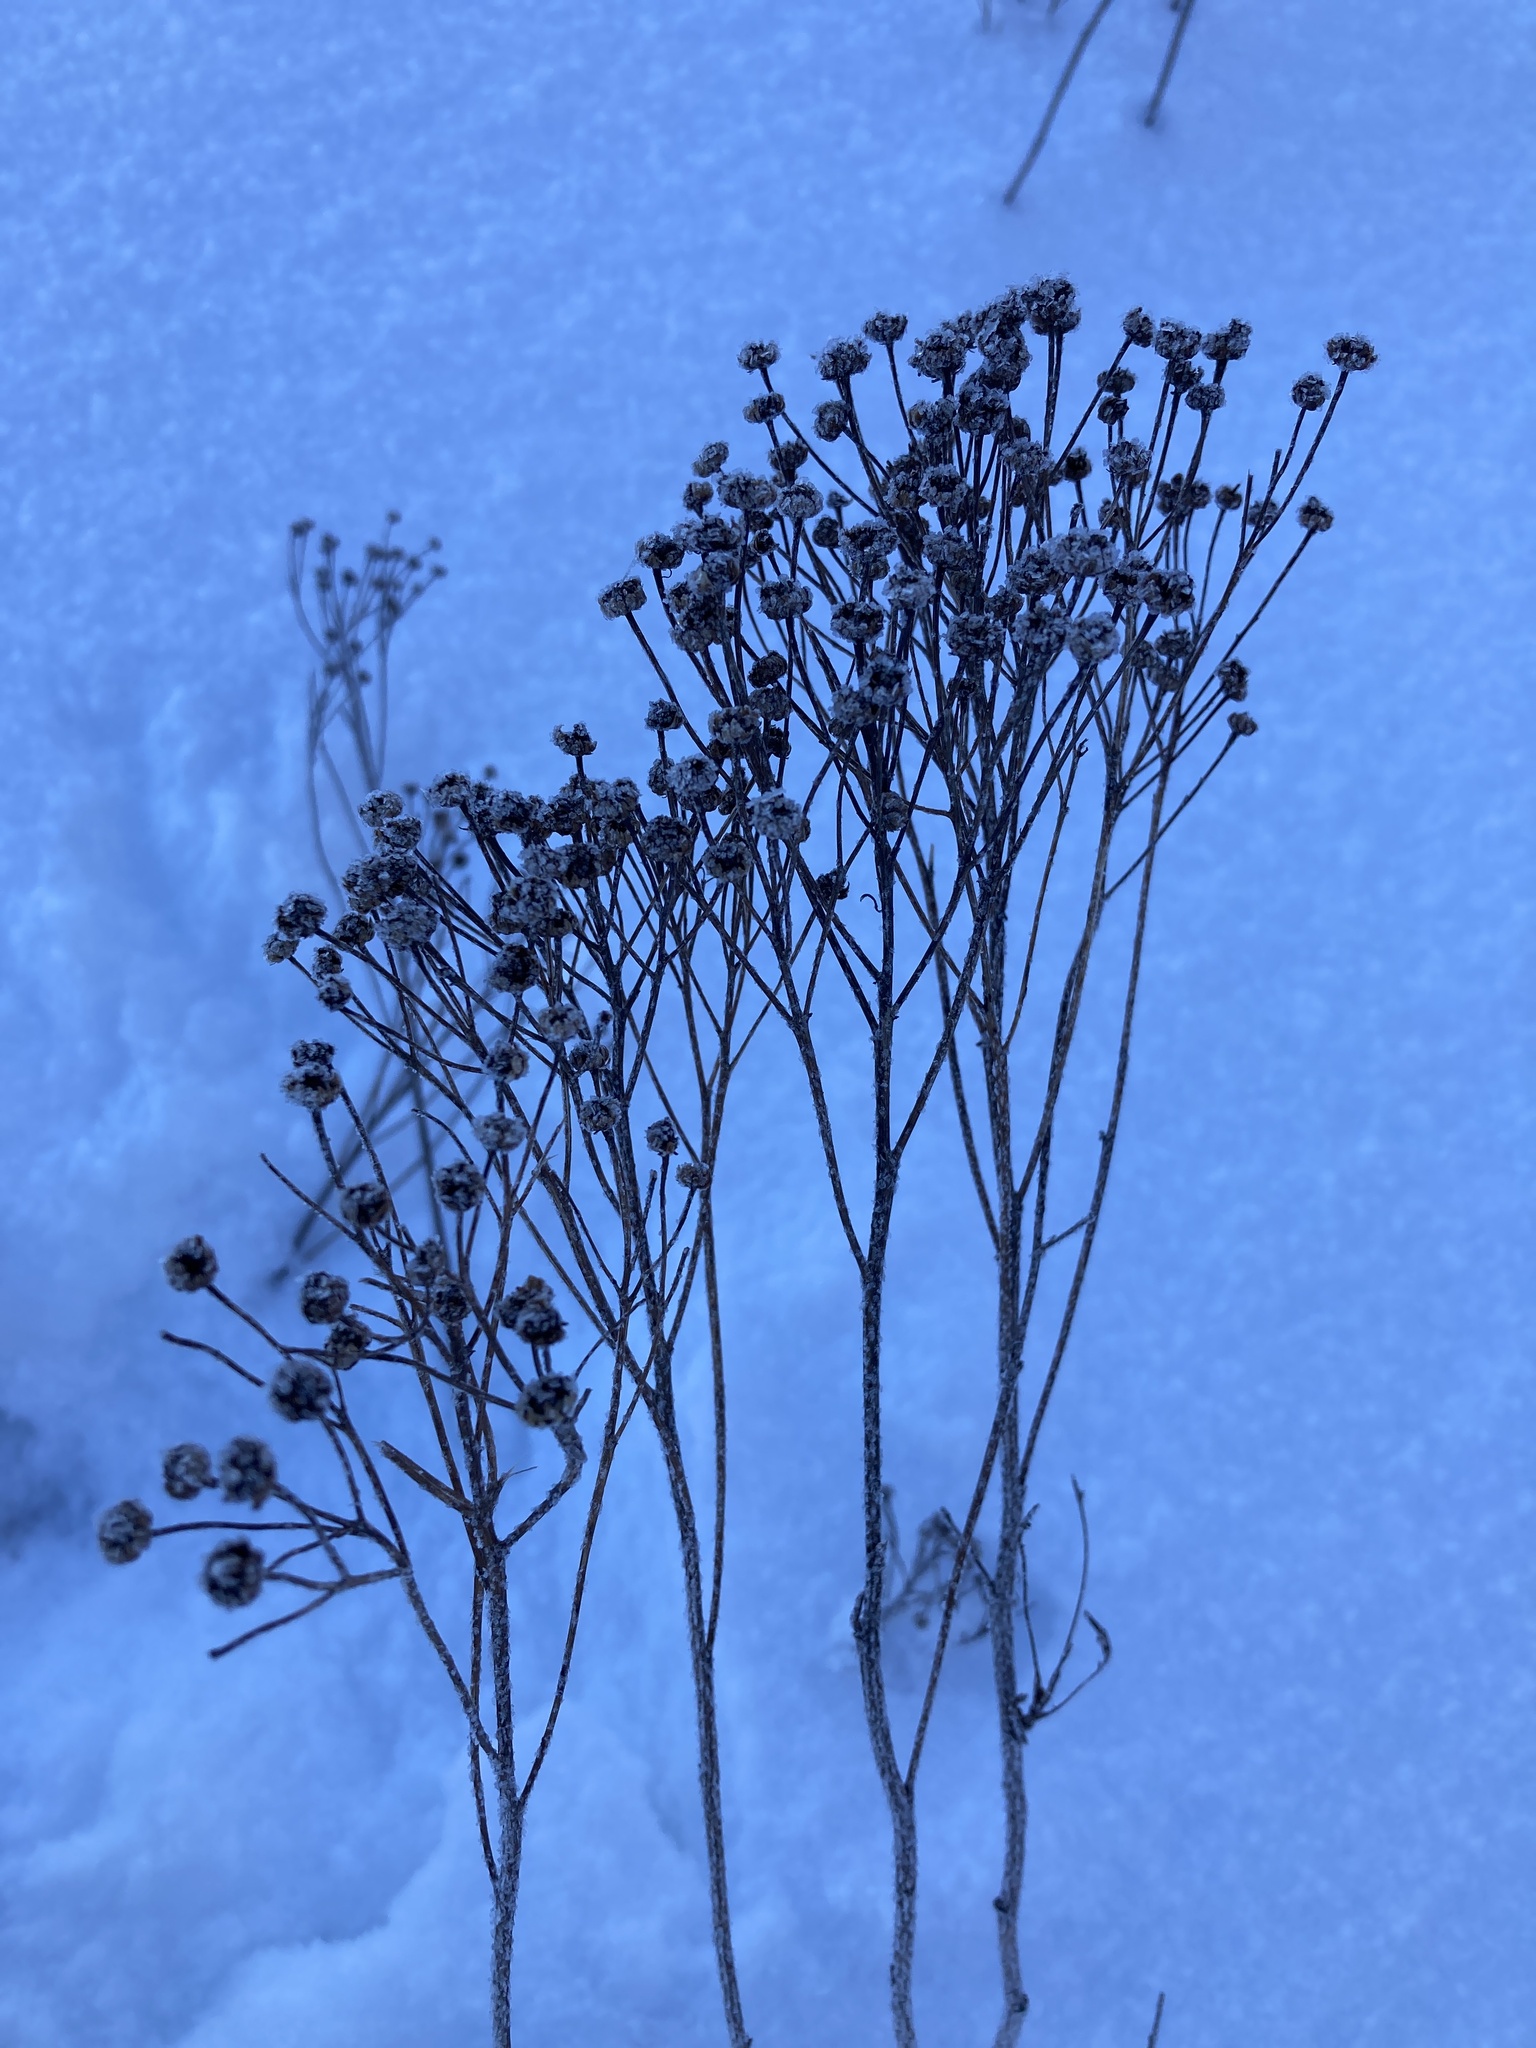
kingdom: Plantae
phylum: Tracheophyta
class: Magnoliopsida
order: Asterales
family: Asteraceae
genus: Tanacetum
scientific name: Tanacetum vulgare
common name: Common tansy
